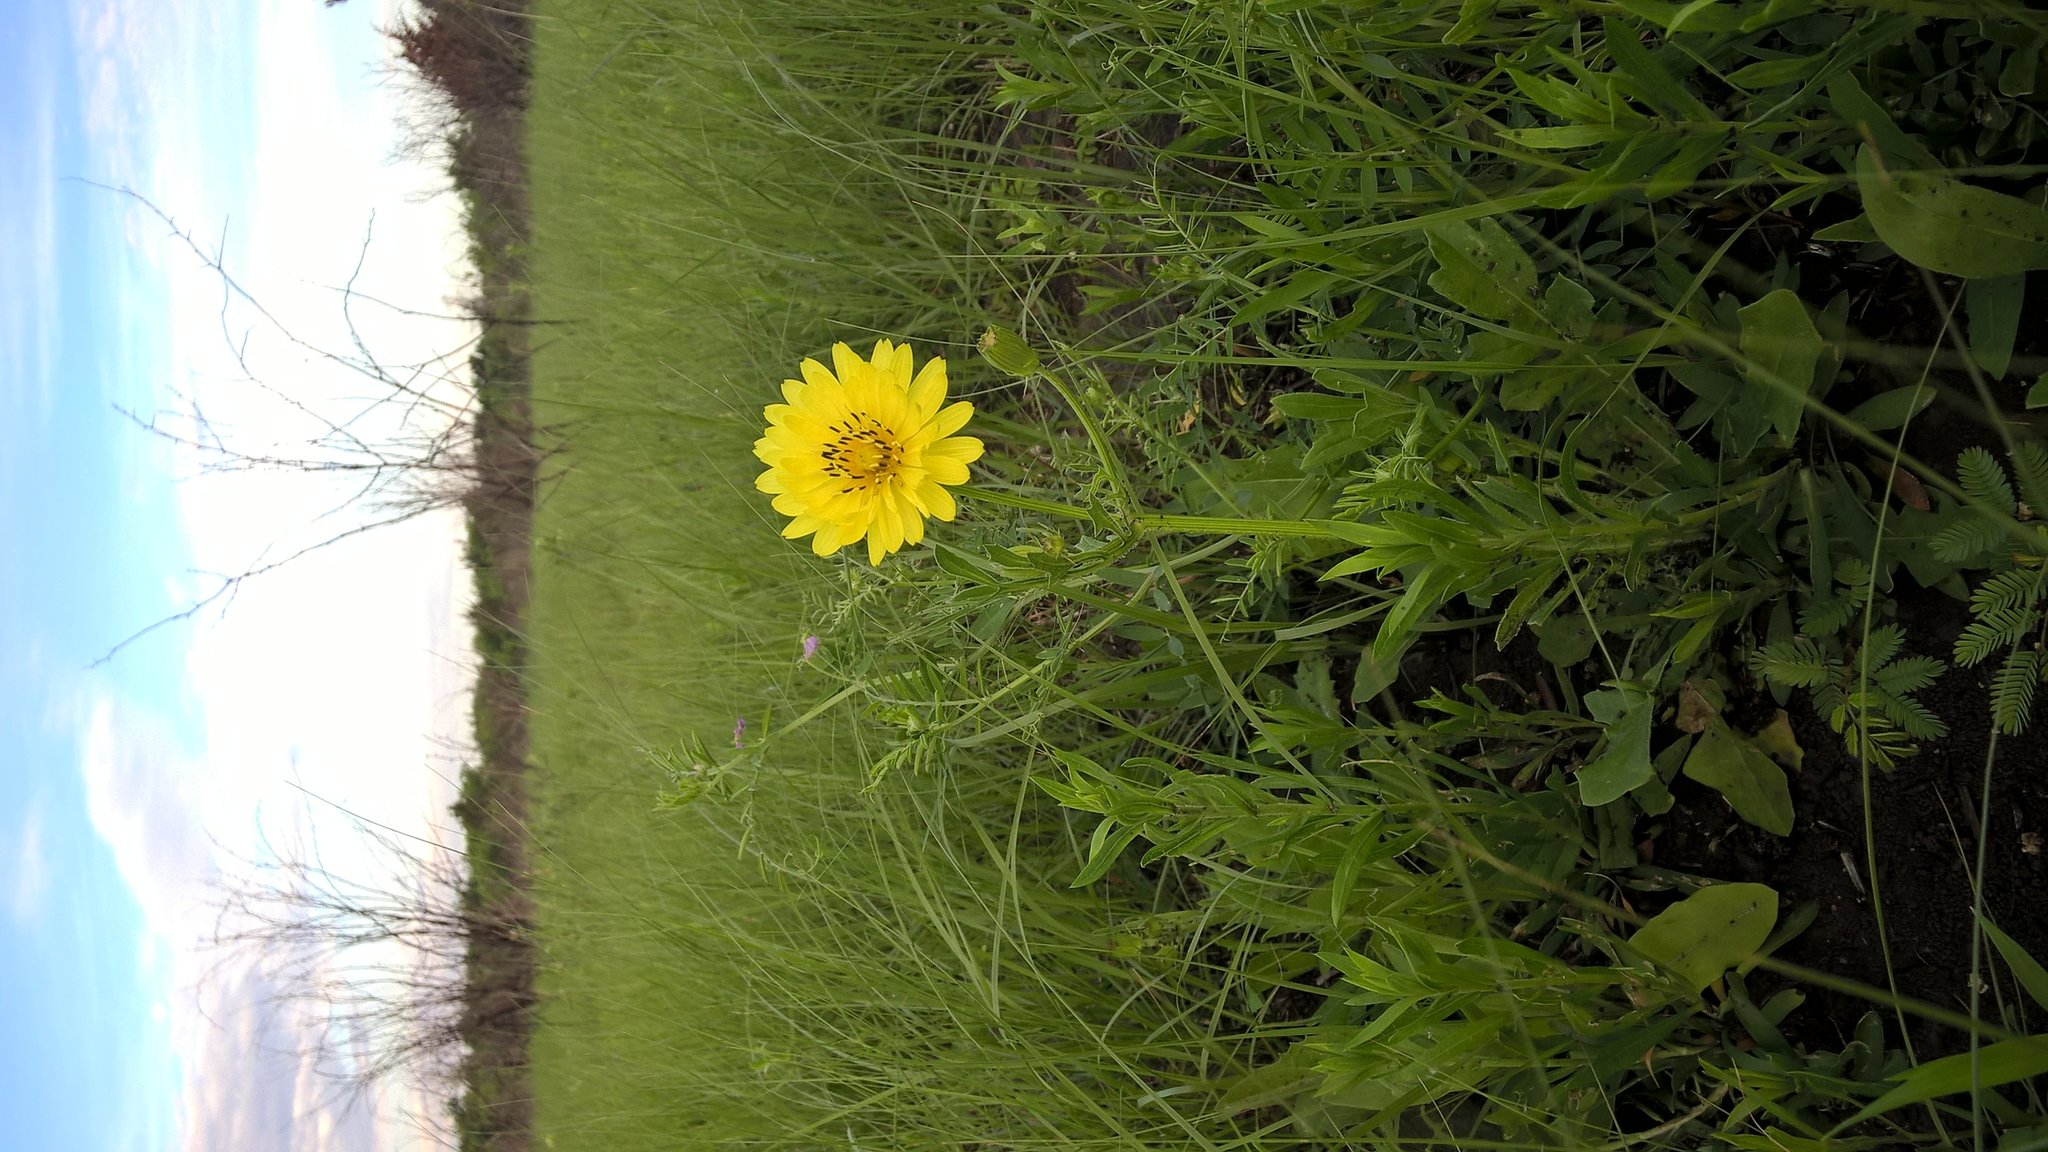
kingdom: Plantae
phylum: Tracheophyta
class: Magnoliopsida
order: Asterales
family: Asteraceae
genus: Pyrrhopappus
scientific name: Pyrrhopappus pauciflorus
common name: Texas false dandelion
